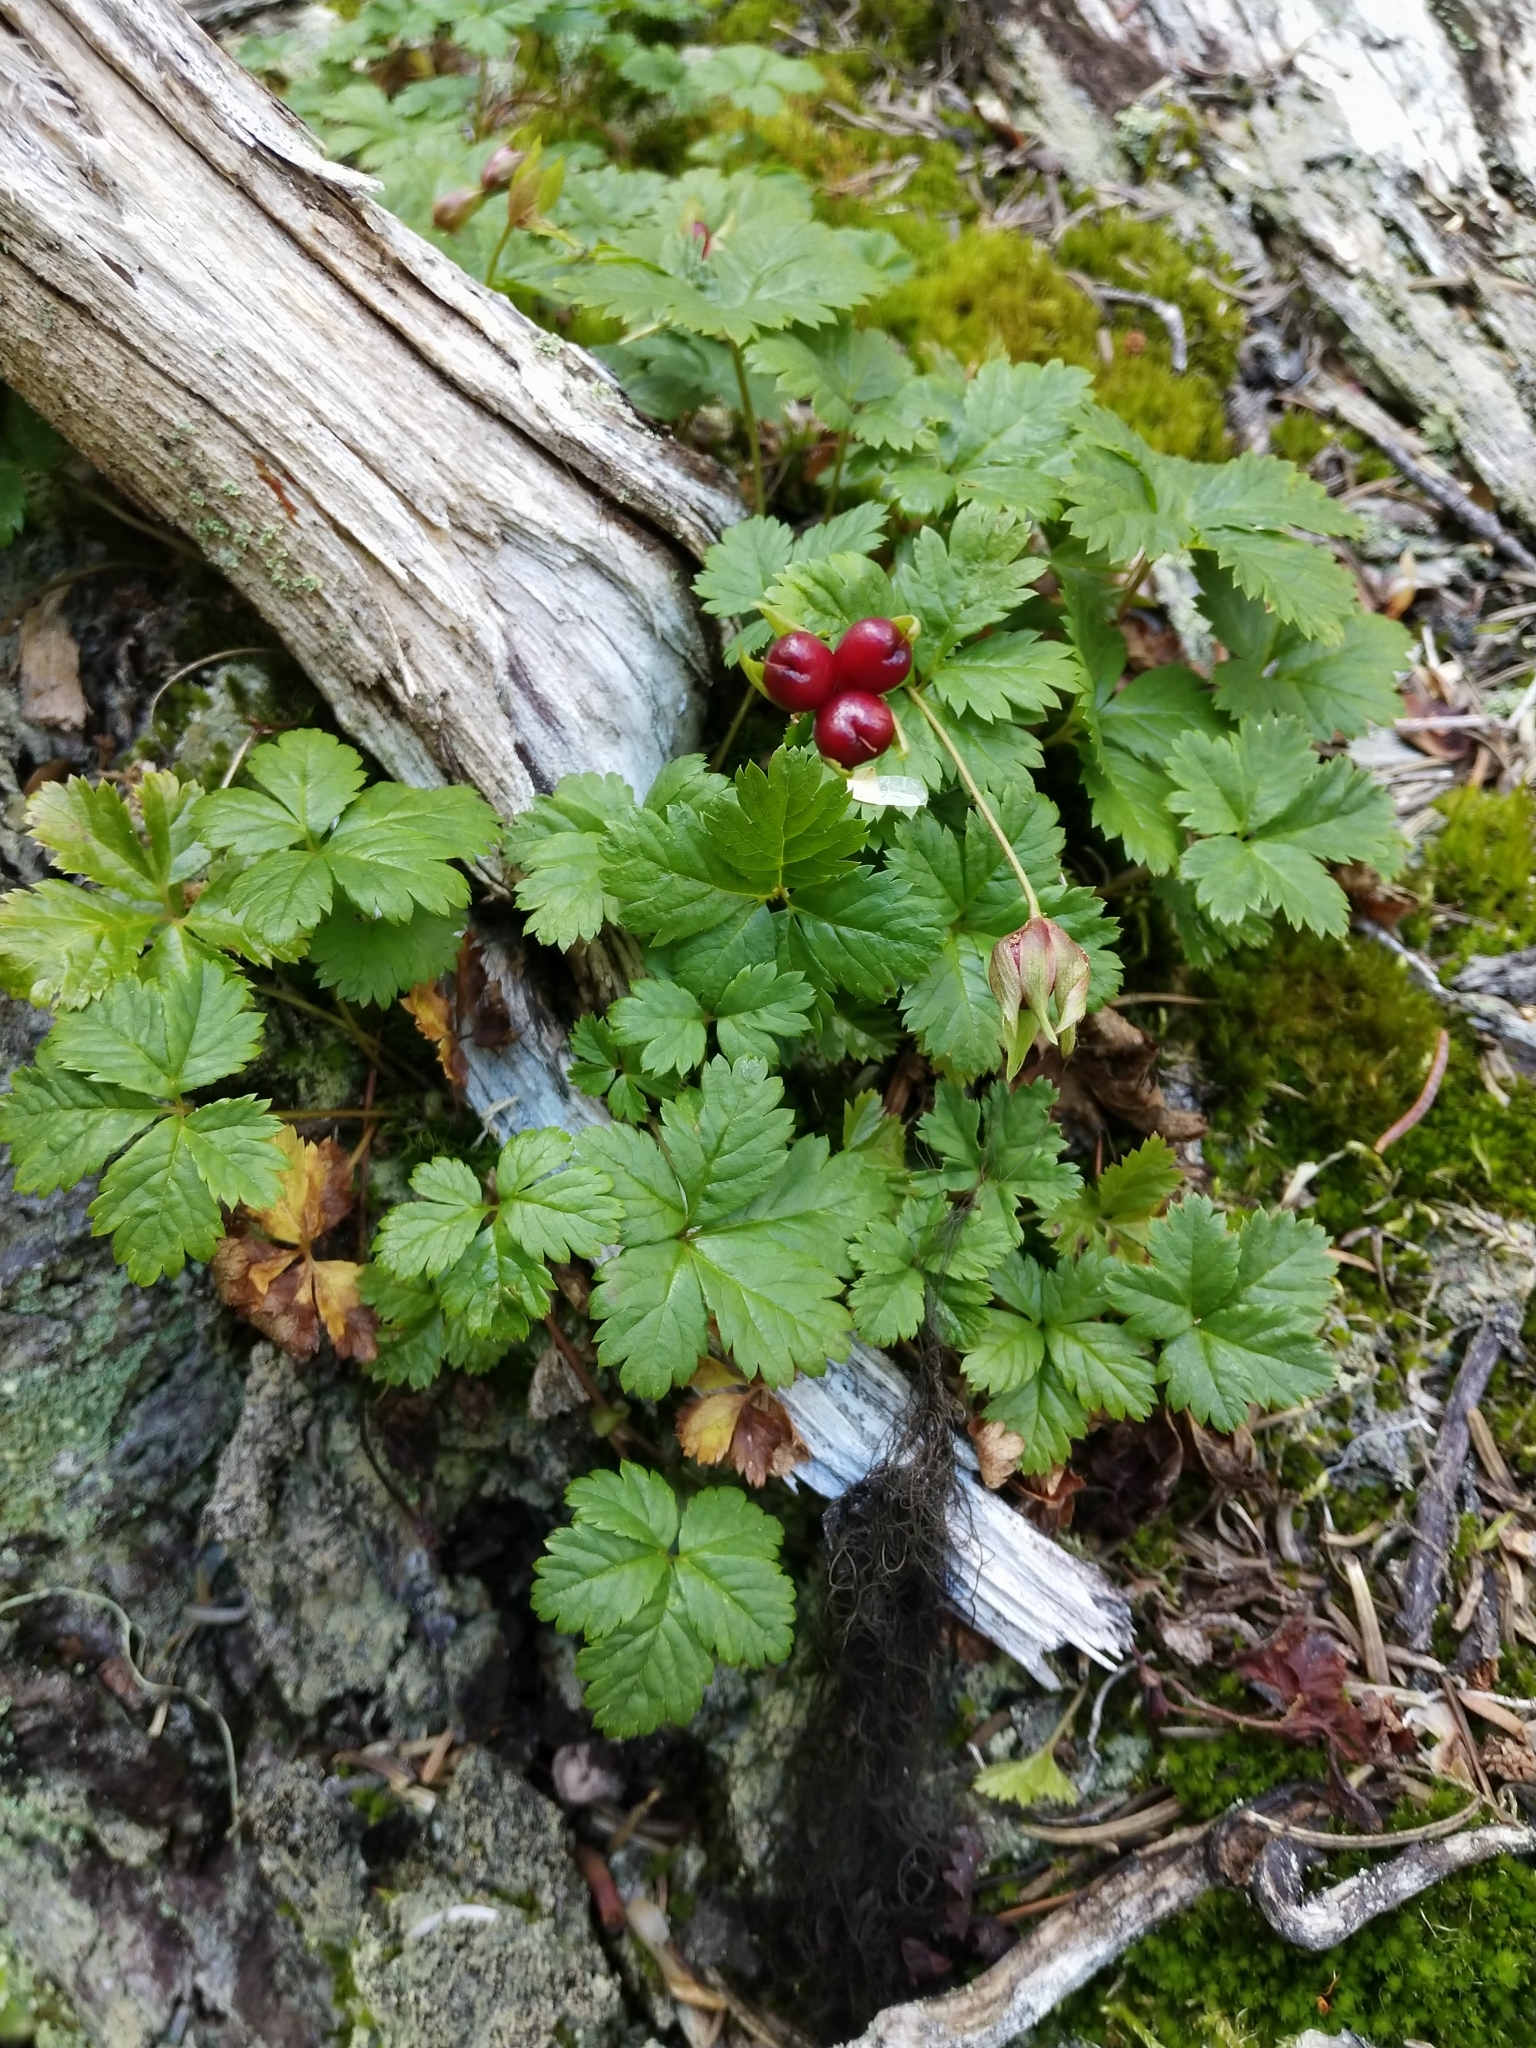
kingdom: Plantae
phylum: Tracheophyta
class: Magnoliopsida
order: Rosales
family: Rosaceae
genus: Rubus
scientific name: Rubus pedatus
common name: Creeping raspberry
